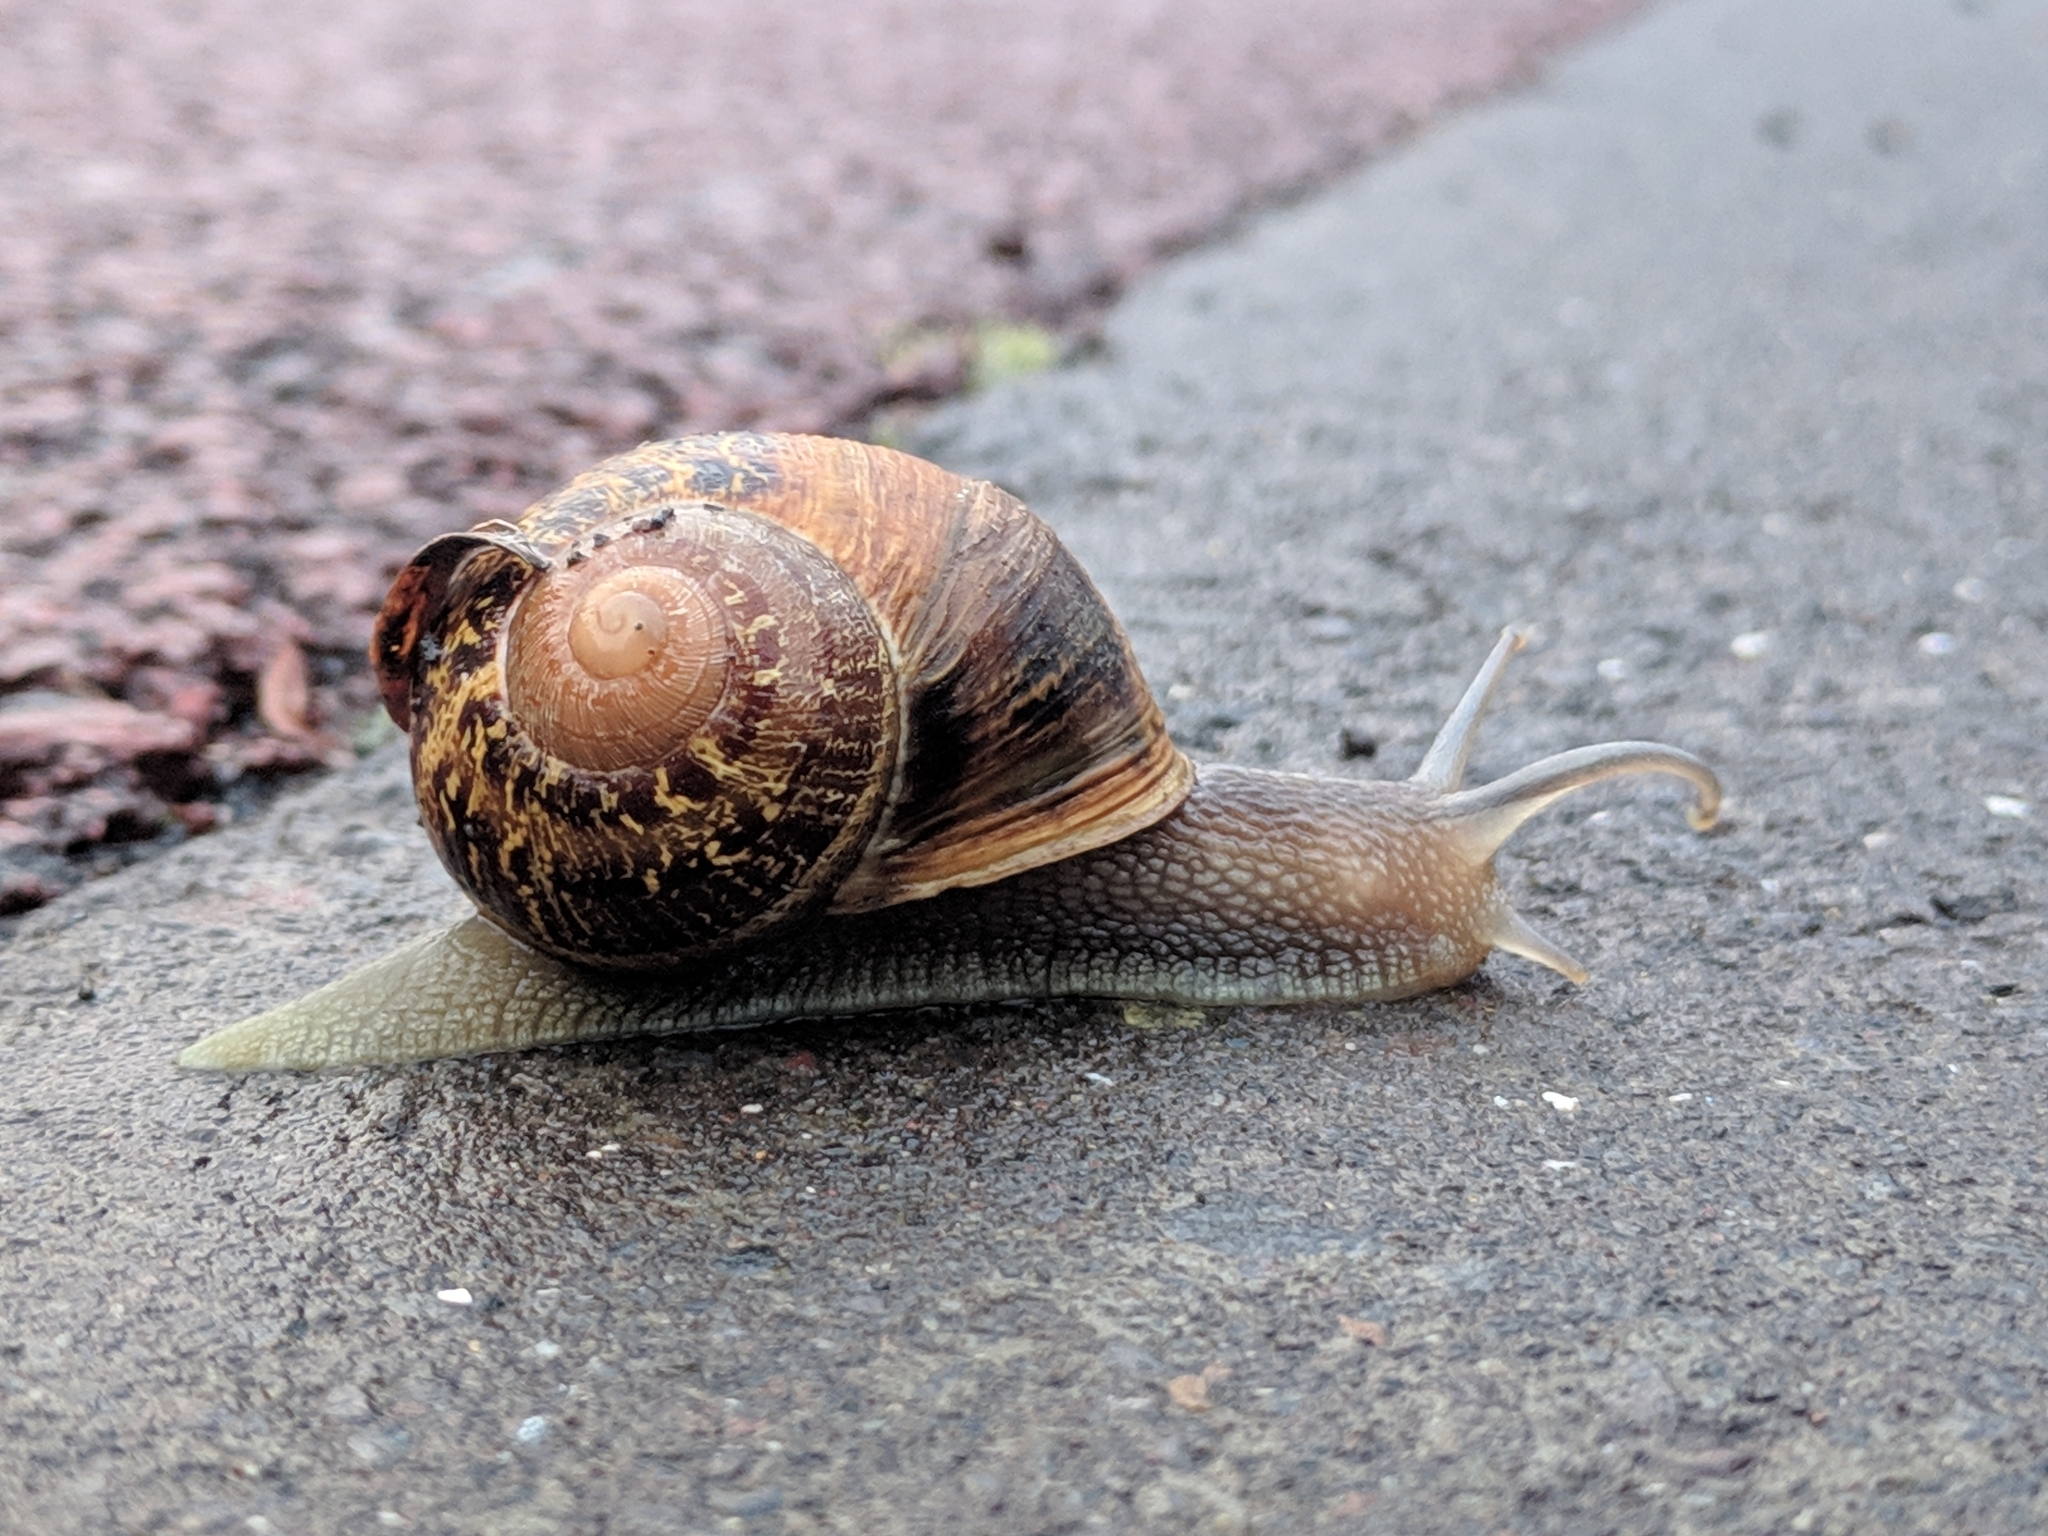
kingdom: Animalia
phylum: Mollusca
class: Gastropoda
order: Stylommatophora
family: Helicidae
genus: Cornu
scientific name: Cornu aspersum
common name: Brown garden snail
